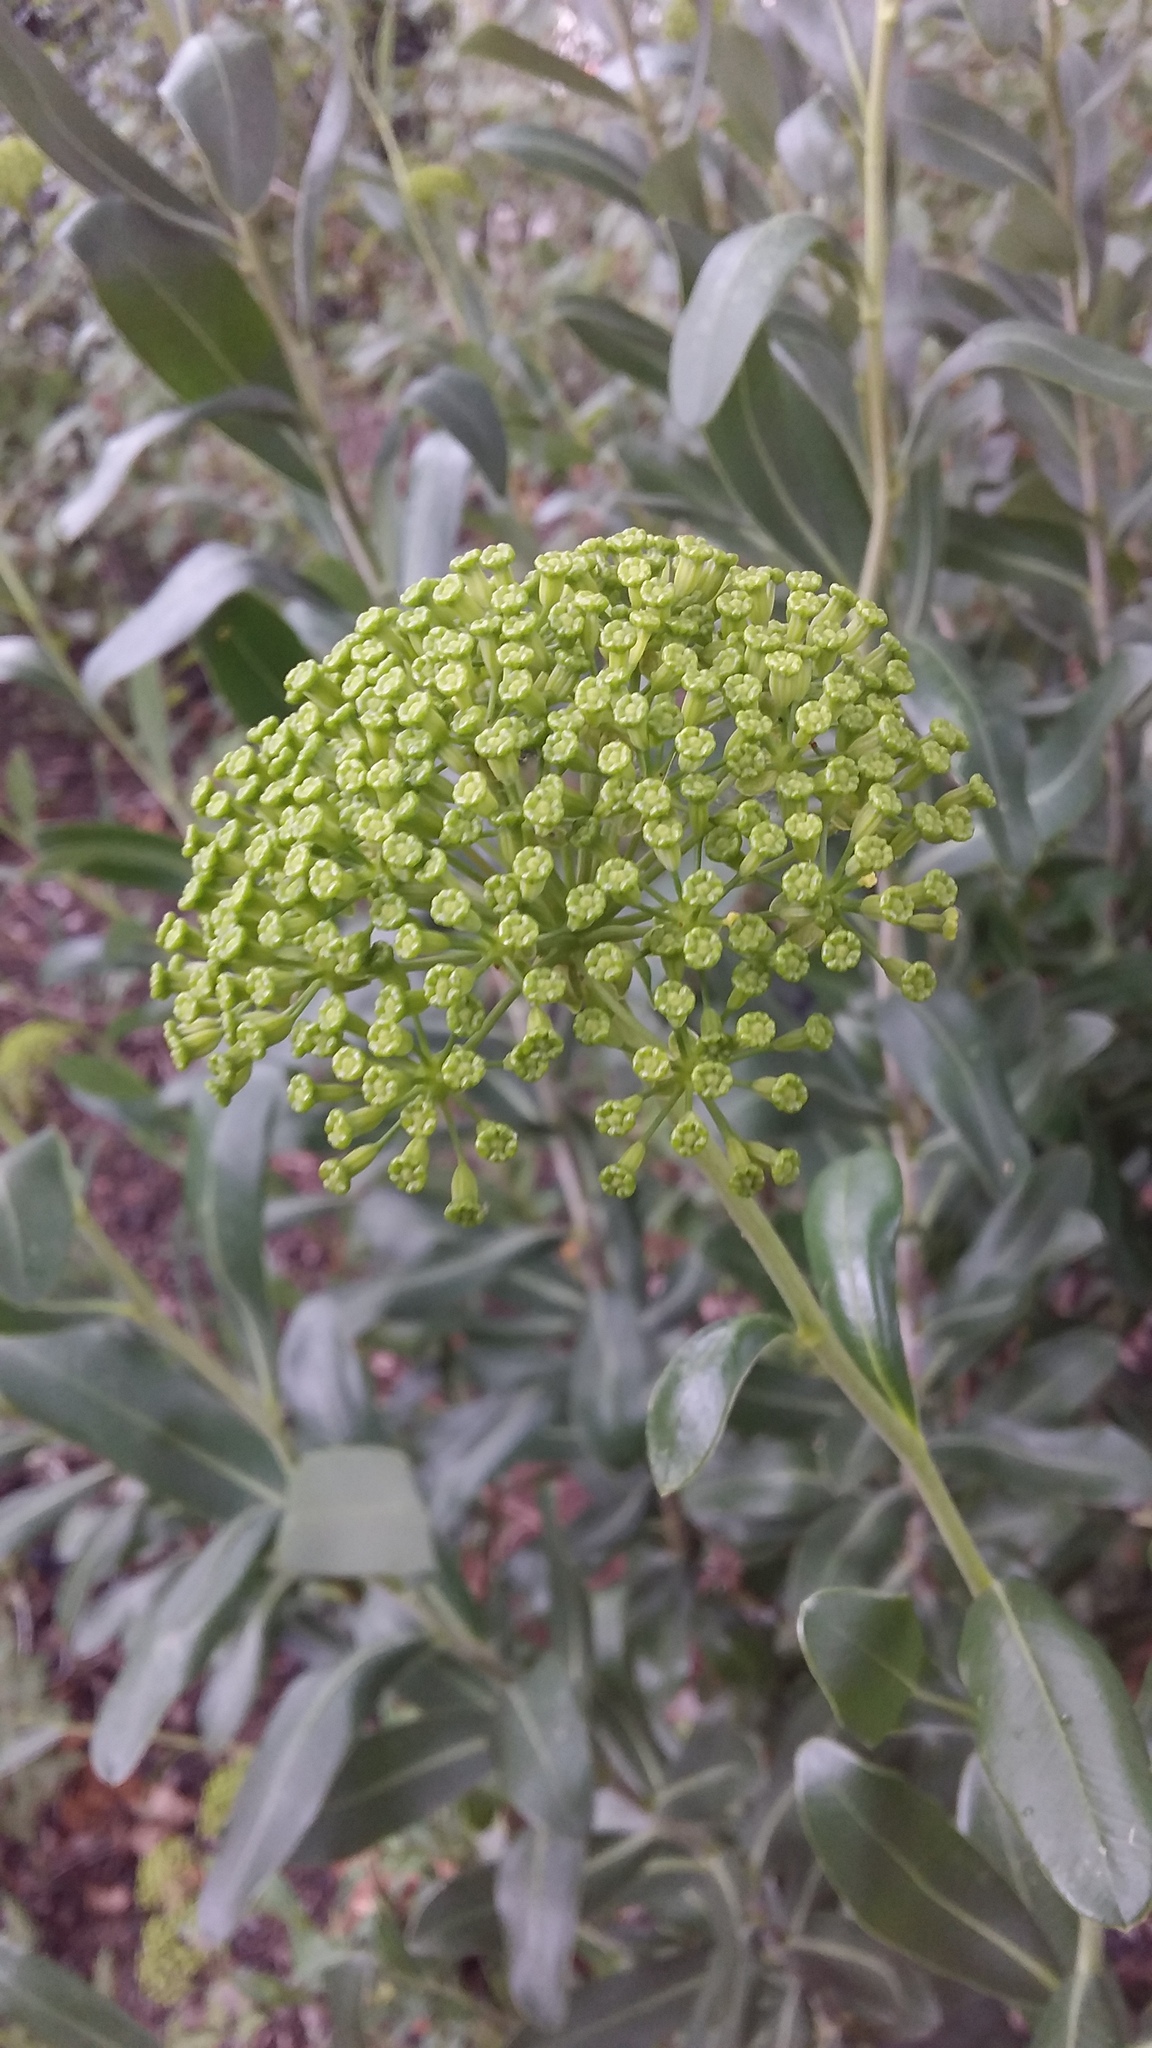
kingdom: Plantae
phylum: Tracheophyta
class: Magnoliopsida
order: Apiales
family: Apiaceae
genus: Bupleurum
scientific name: Bupleurum fruticosum
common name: Shrubby hare's-ear
